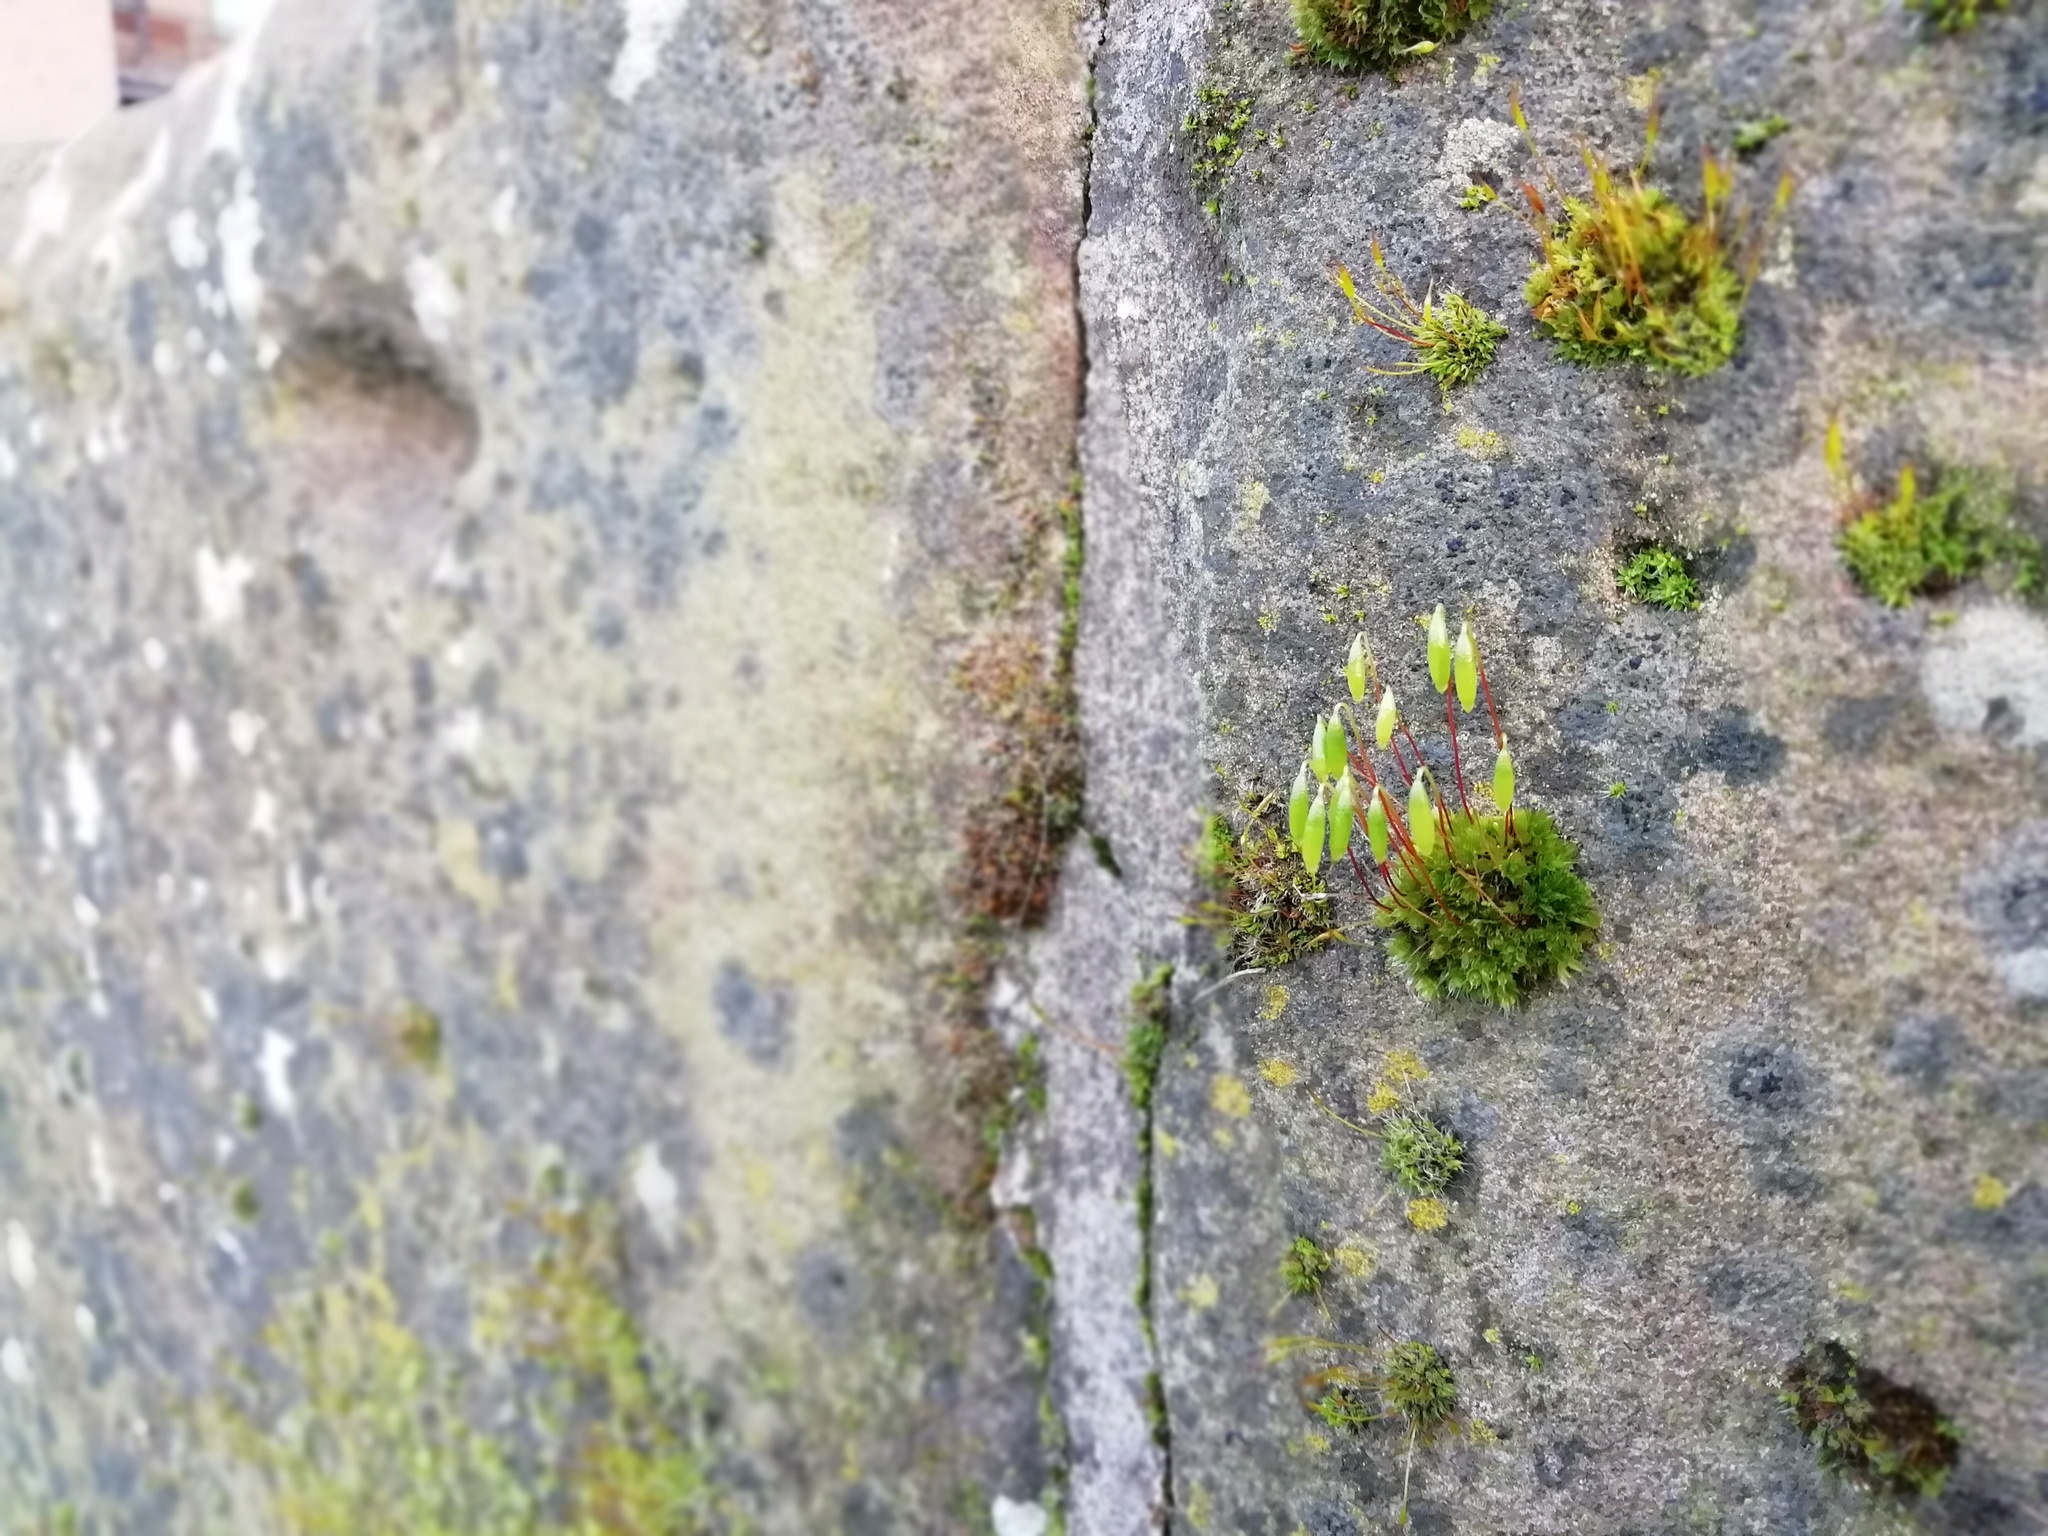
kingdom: Plantae
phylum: Bryophyta
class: Bryopsida
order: Bryales
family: Bryaceae
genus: Rosulabryum
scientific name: Rosulabryum capillare
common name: Capillary thread-moss
